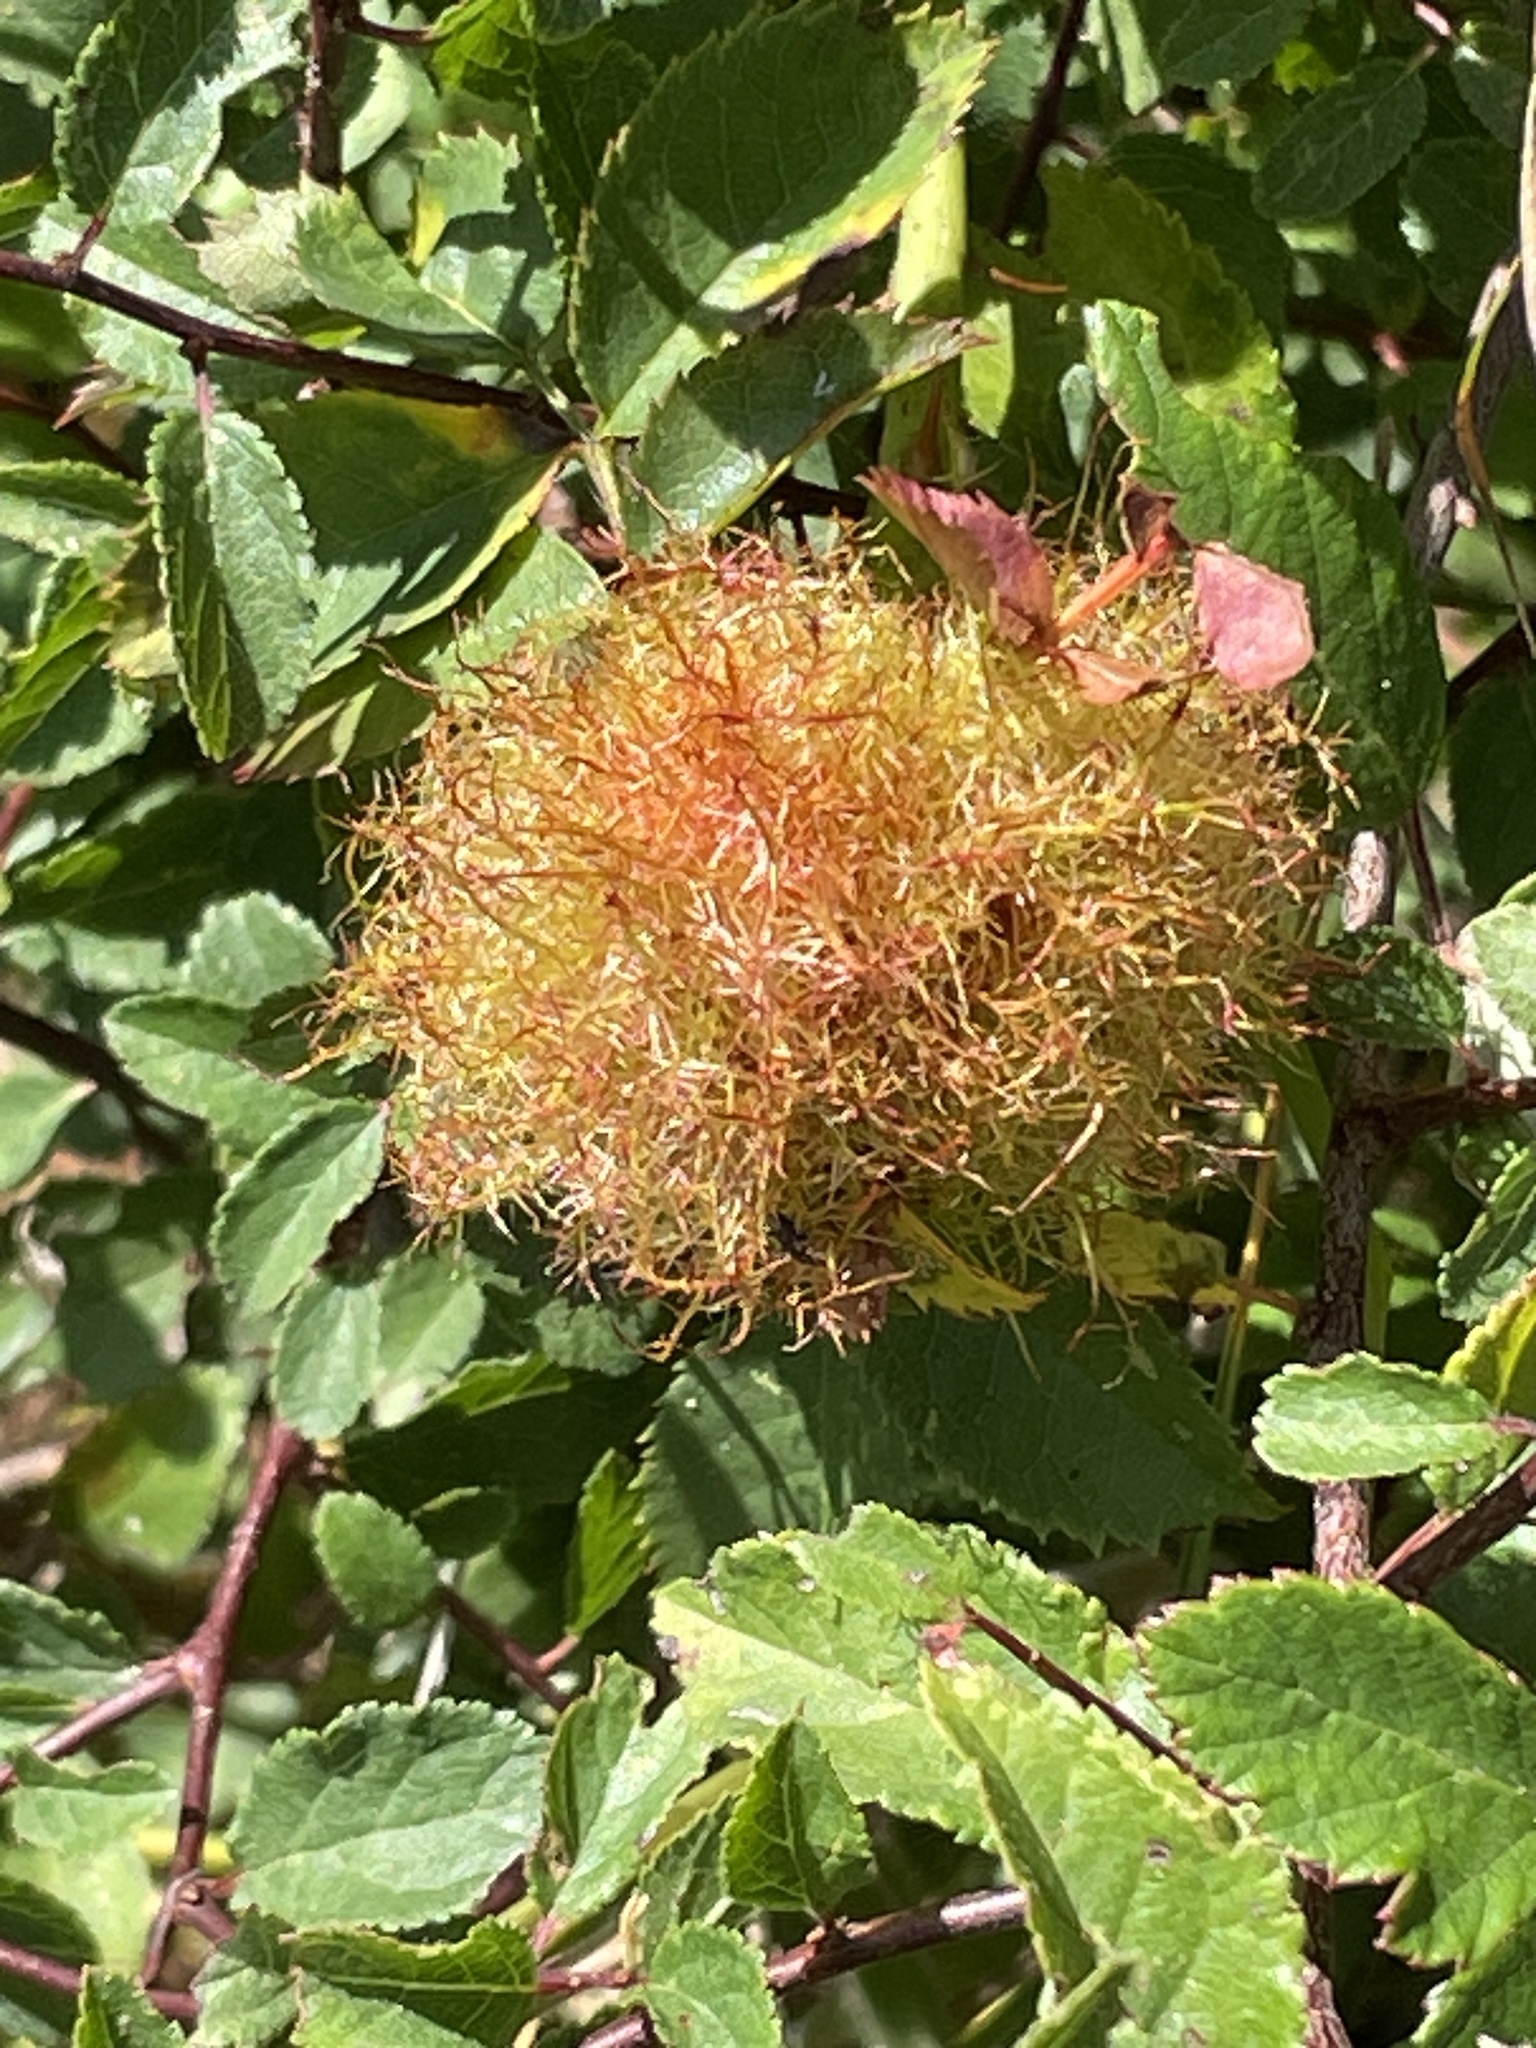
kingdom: Animalia
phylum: Arthropoda
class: Insecta
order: Hymenoptera
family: Cynipidae
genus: Diplolepis
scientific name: Diplolepis rosae
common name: Bedeguar gall
